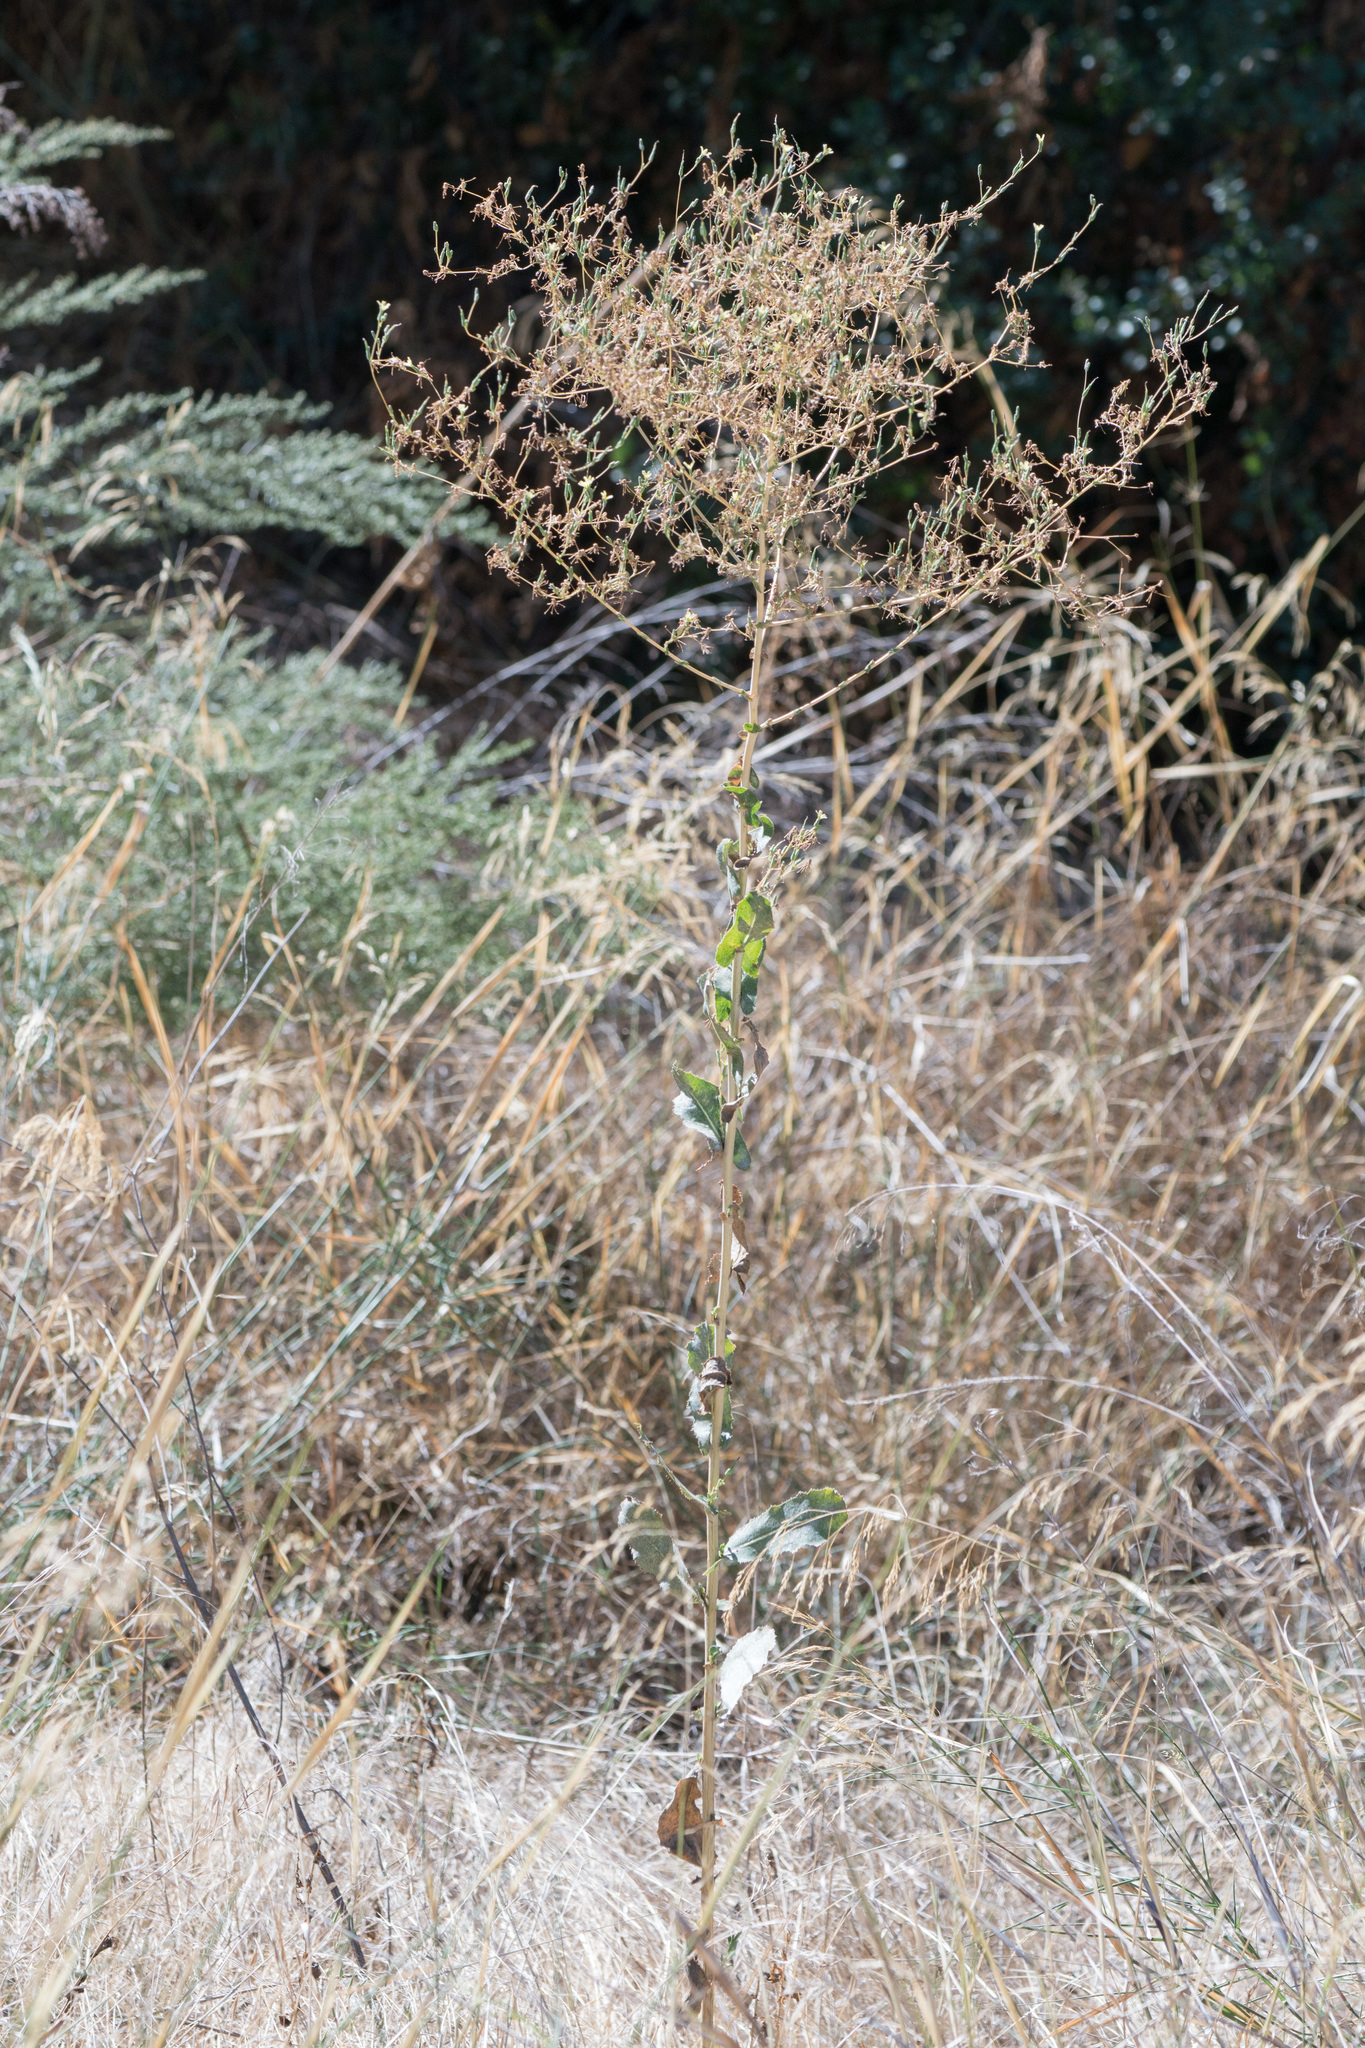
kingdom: Plantae
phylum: Tracheophyta
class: Magnoliopsida
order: Asterales
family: Asteraceae
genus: Lactuca
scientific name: Lactuca serriola
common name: Prickly lettuce
